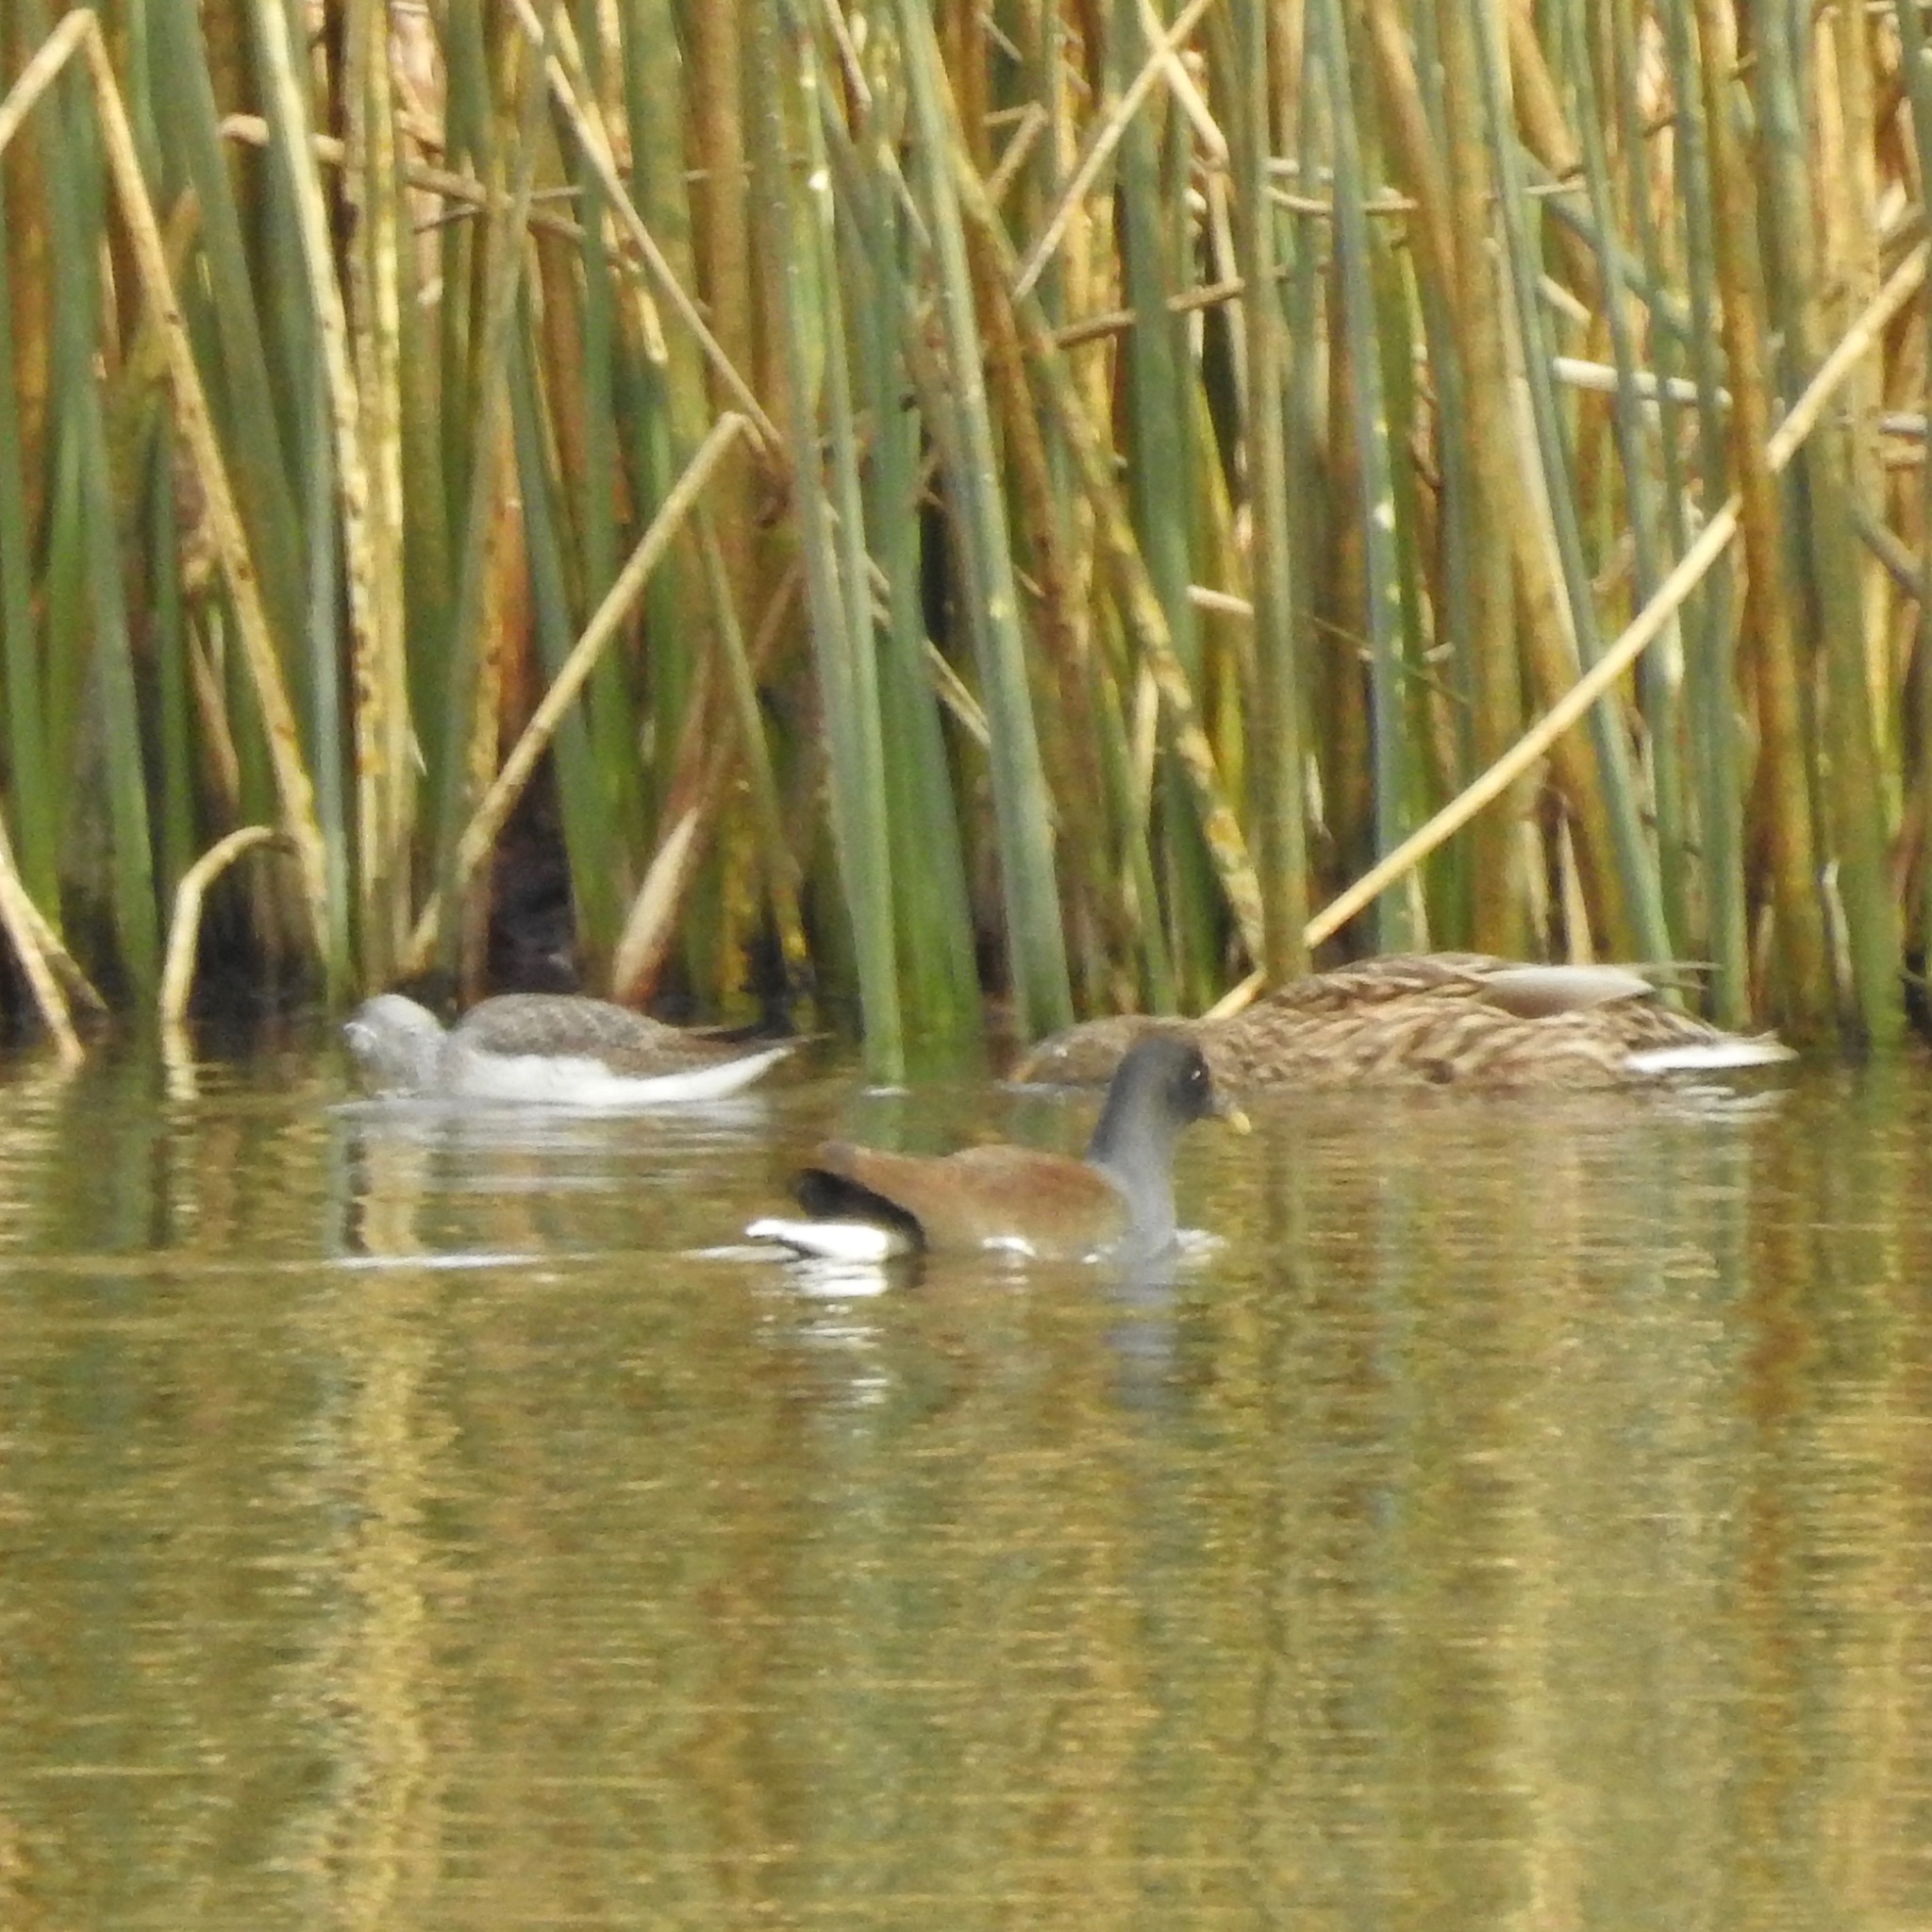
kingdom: Animalia
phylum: Chordata
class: Aves
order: Gruiformes
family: Rallidae
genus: Gallinula
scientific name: Gallinula chloropus
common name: Common moorhen
